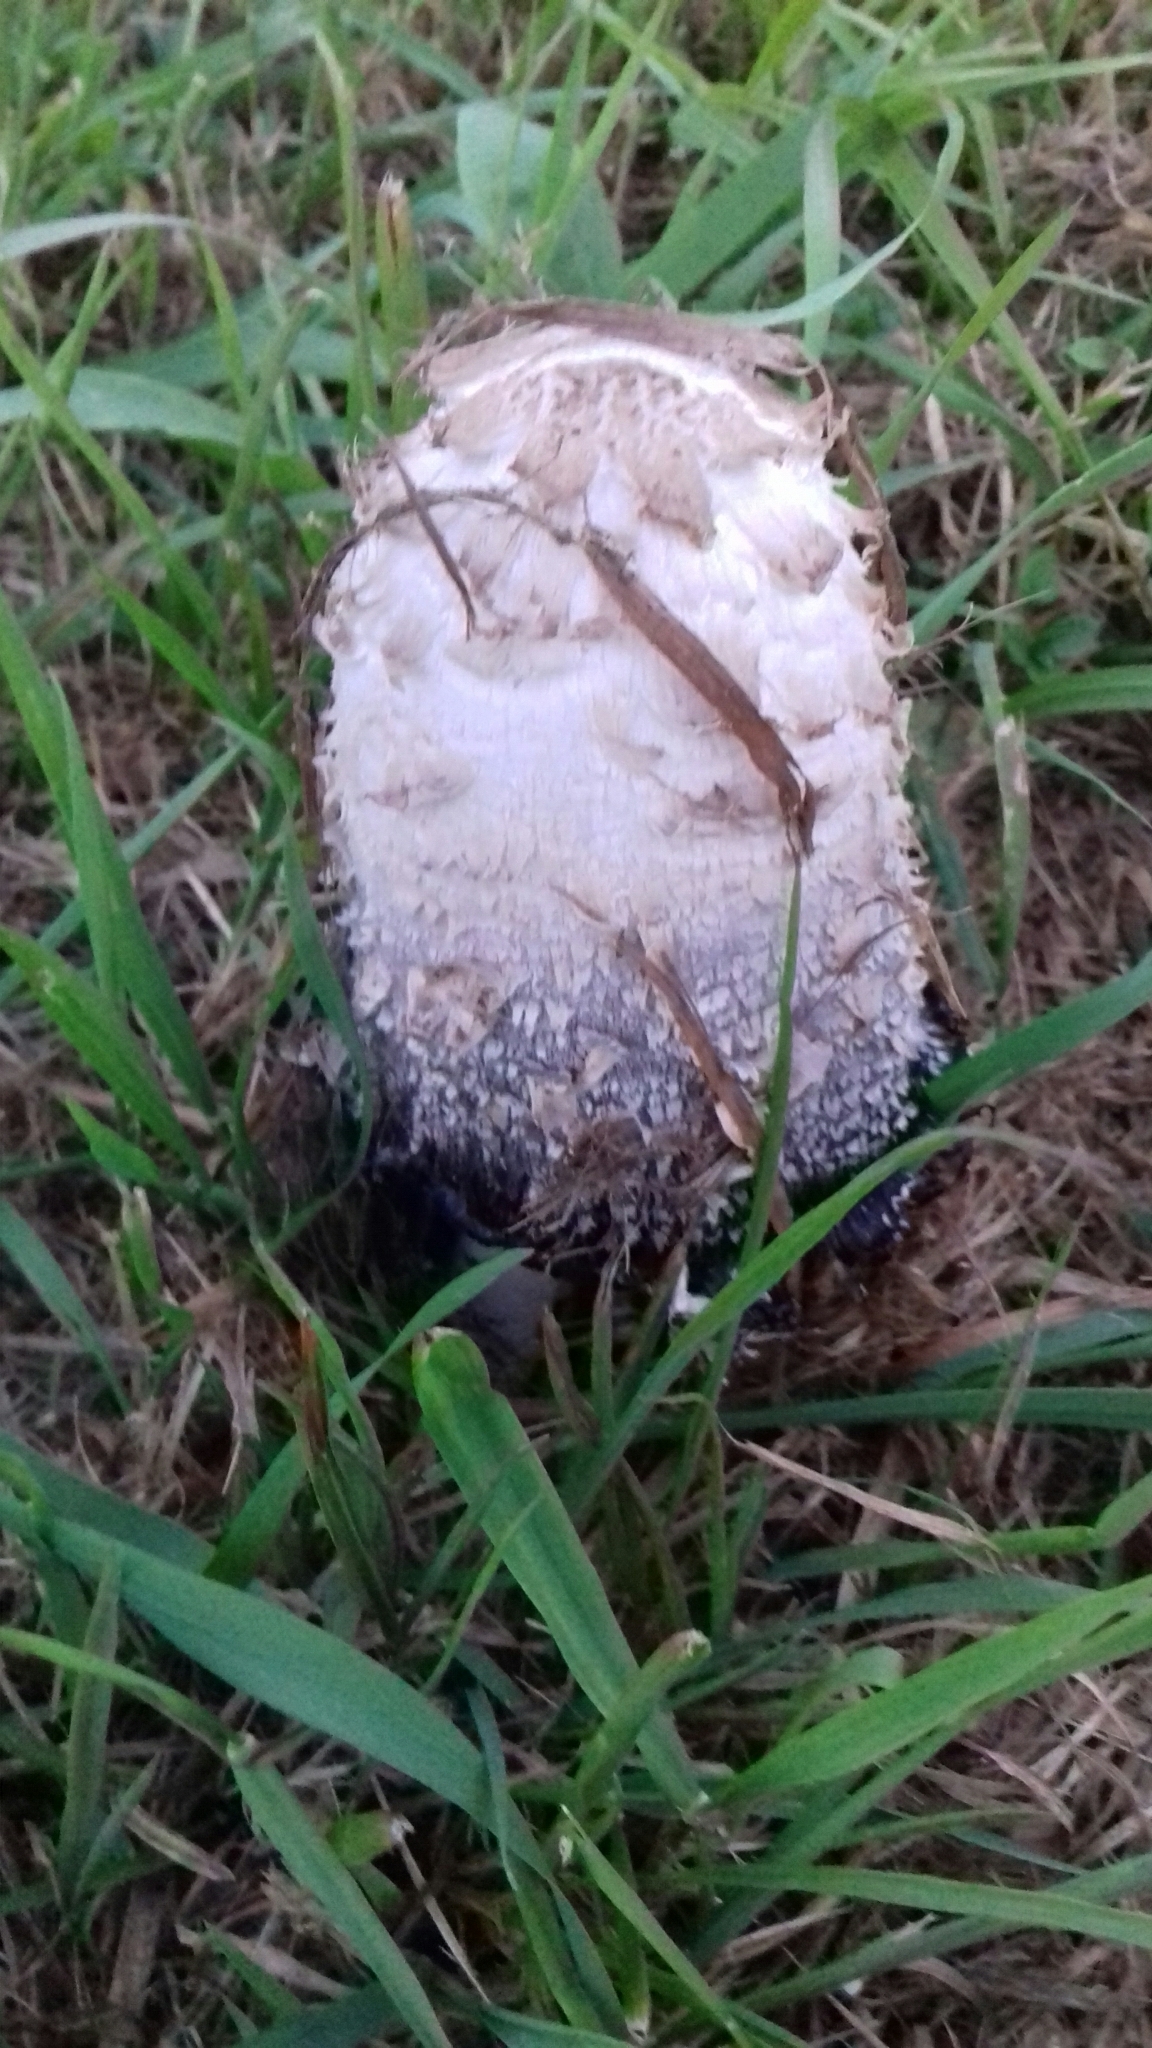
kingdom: Fungi
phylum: Basidiomycota
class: Agaricomycetes
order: Agaricales
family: Agaricaceae
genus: Coprinus
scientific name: Coprinus comatus
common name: Lawyer's wig
